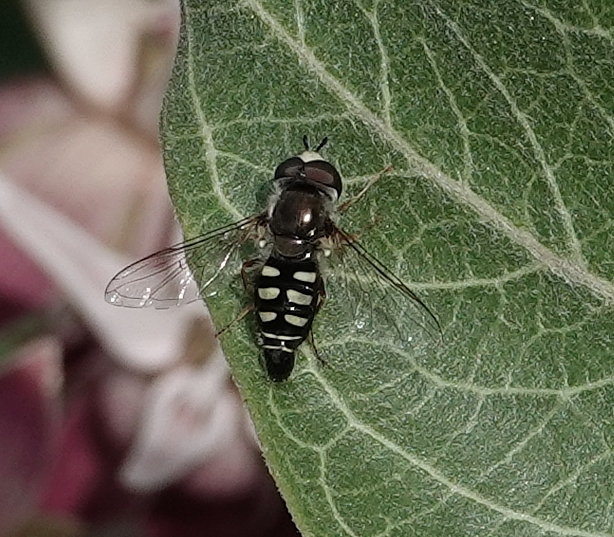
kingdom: Animalia
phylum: Arthropoda
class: Insecta
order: Diptera
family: Syrphidae
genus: Eupeodes
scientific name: Eupeodes volucris
